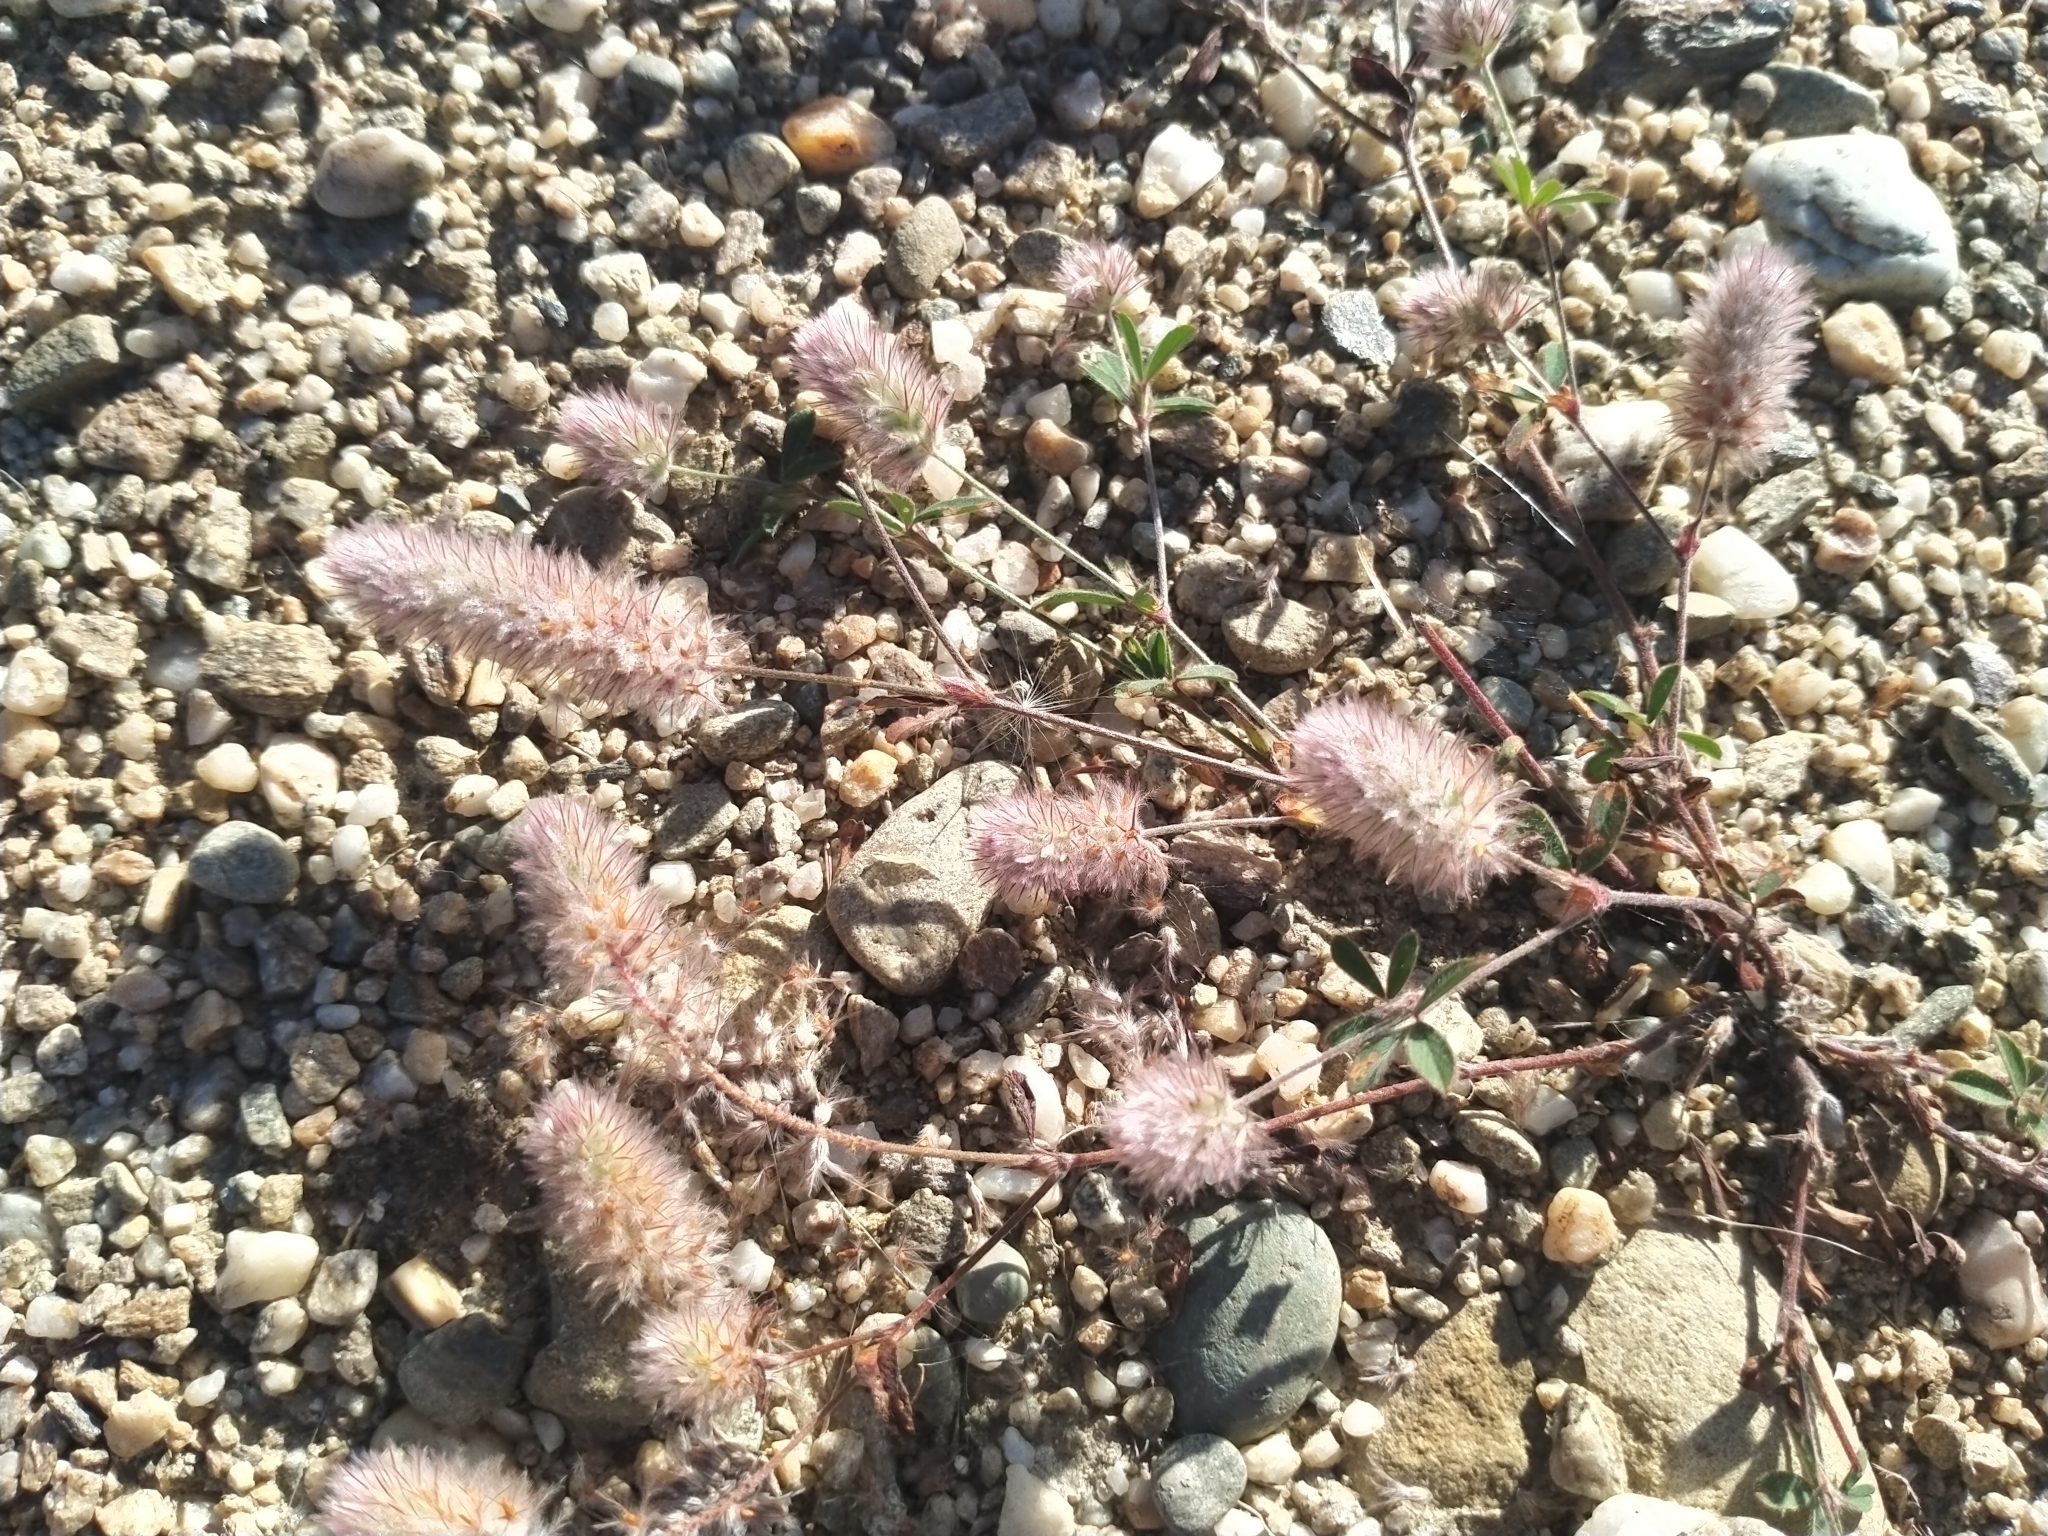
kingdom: Plantae
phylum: Tracheophyta
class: Magnoliopsida
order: Fabales
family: Fabaceae
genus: Trifolium
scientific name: Trifolium arvense
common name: Hare's-foot clover
